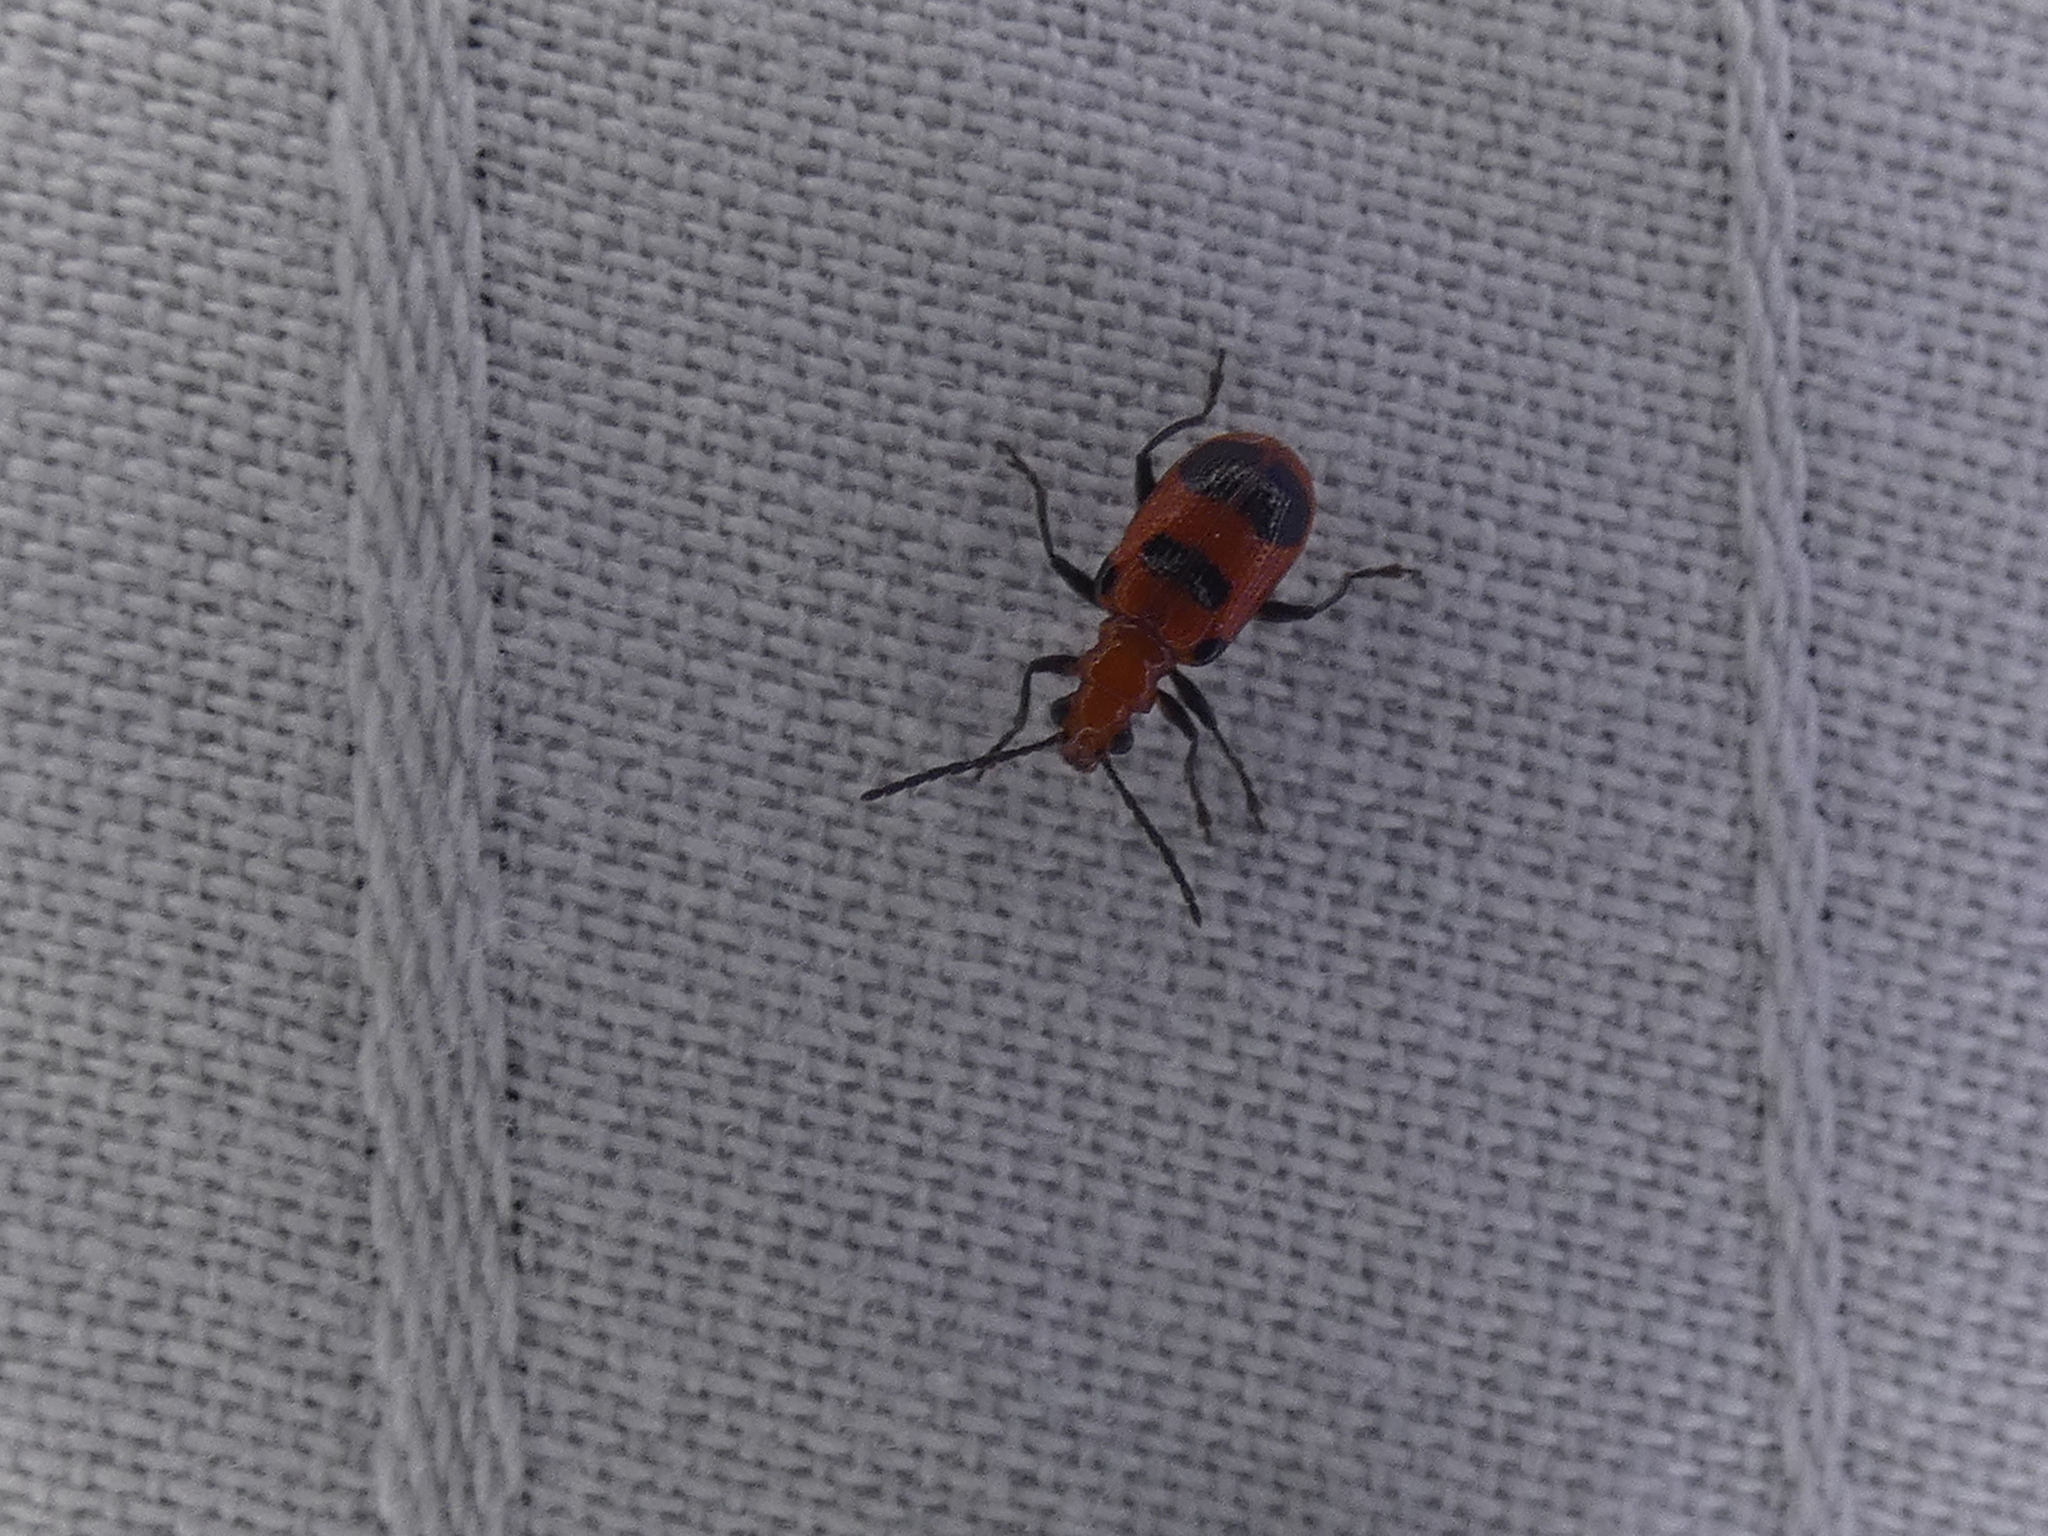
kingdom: Animalia
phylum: Arthropoda
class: Insecta
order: Coleoptera
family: Chrysomelidae
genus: Neolema
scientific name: Neolema sexpunctata
